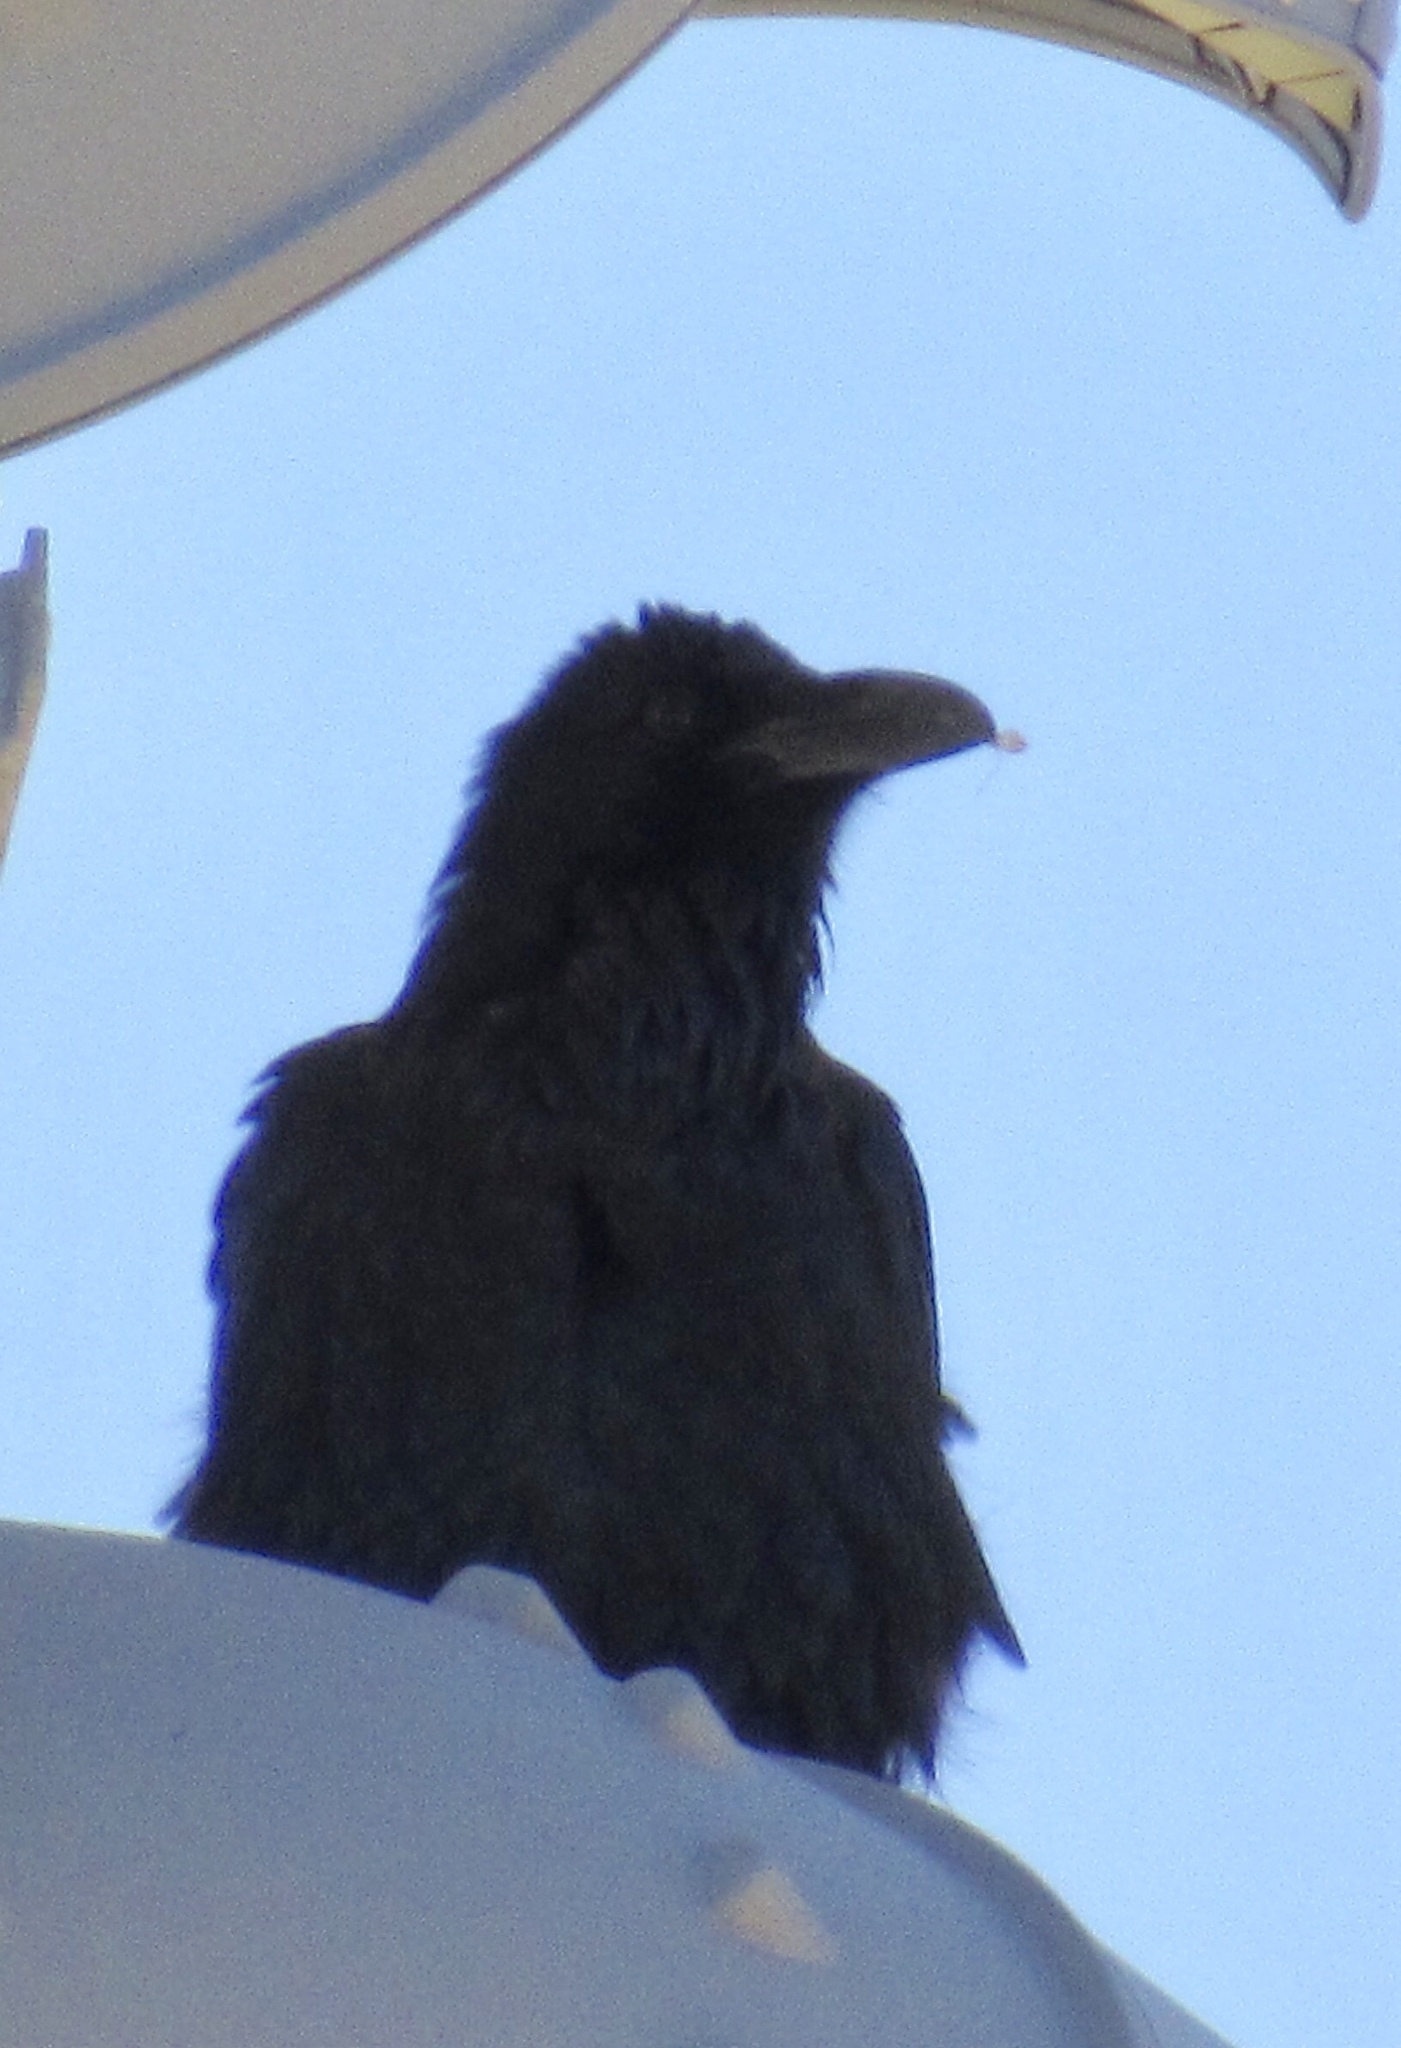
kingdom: Animalia
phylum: Chordata
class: Aves
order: Passeriformes
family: Corvidae
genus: Corvus
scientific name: Corvus corax
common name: Common raven
